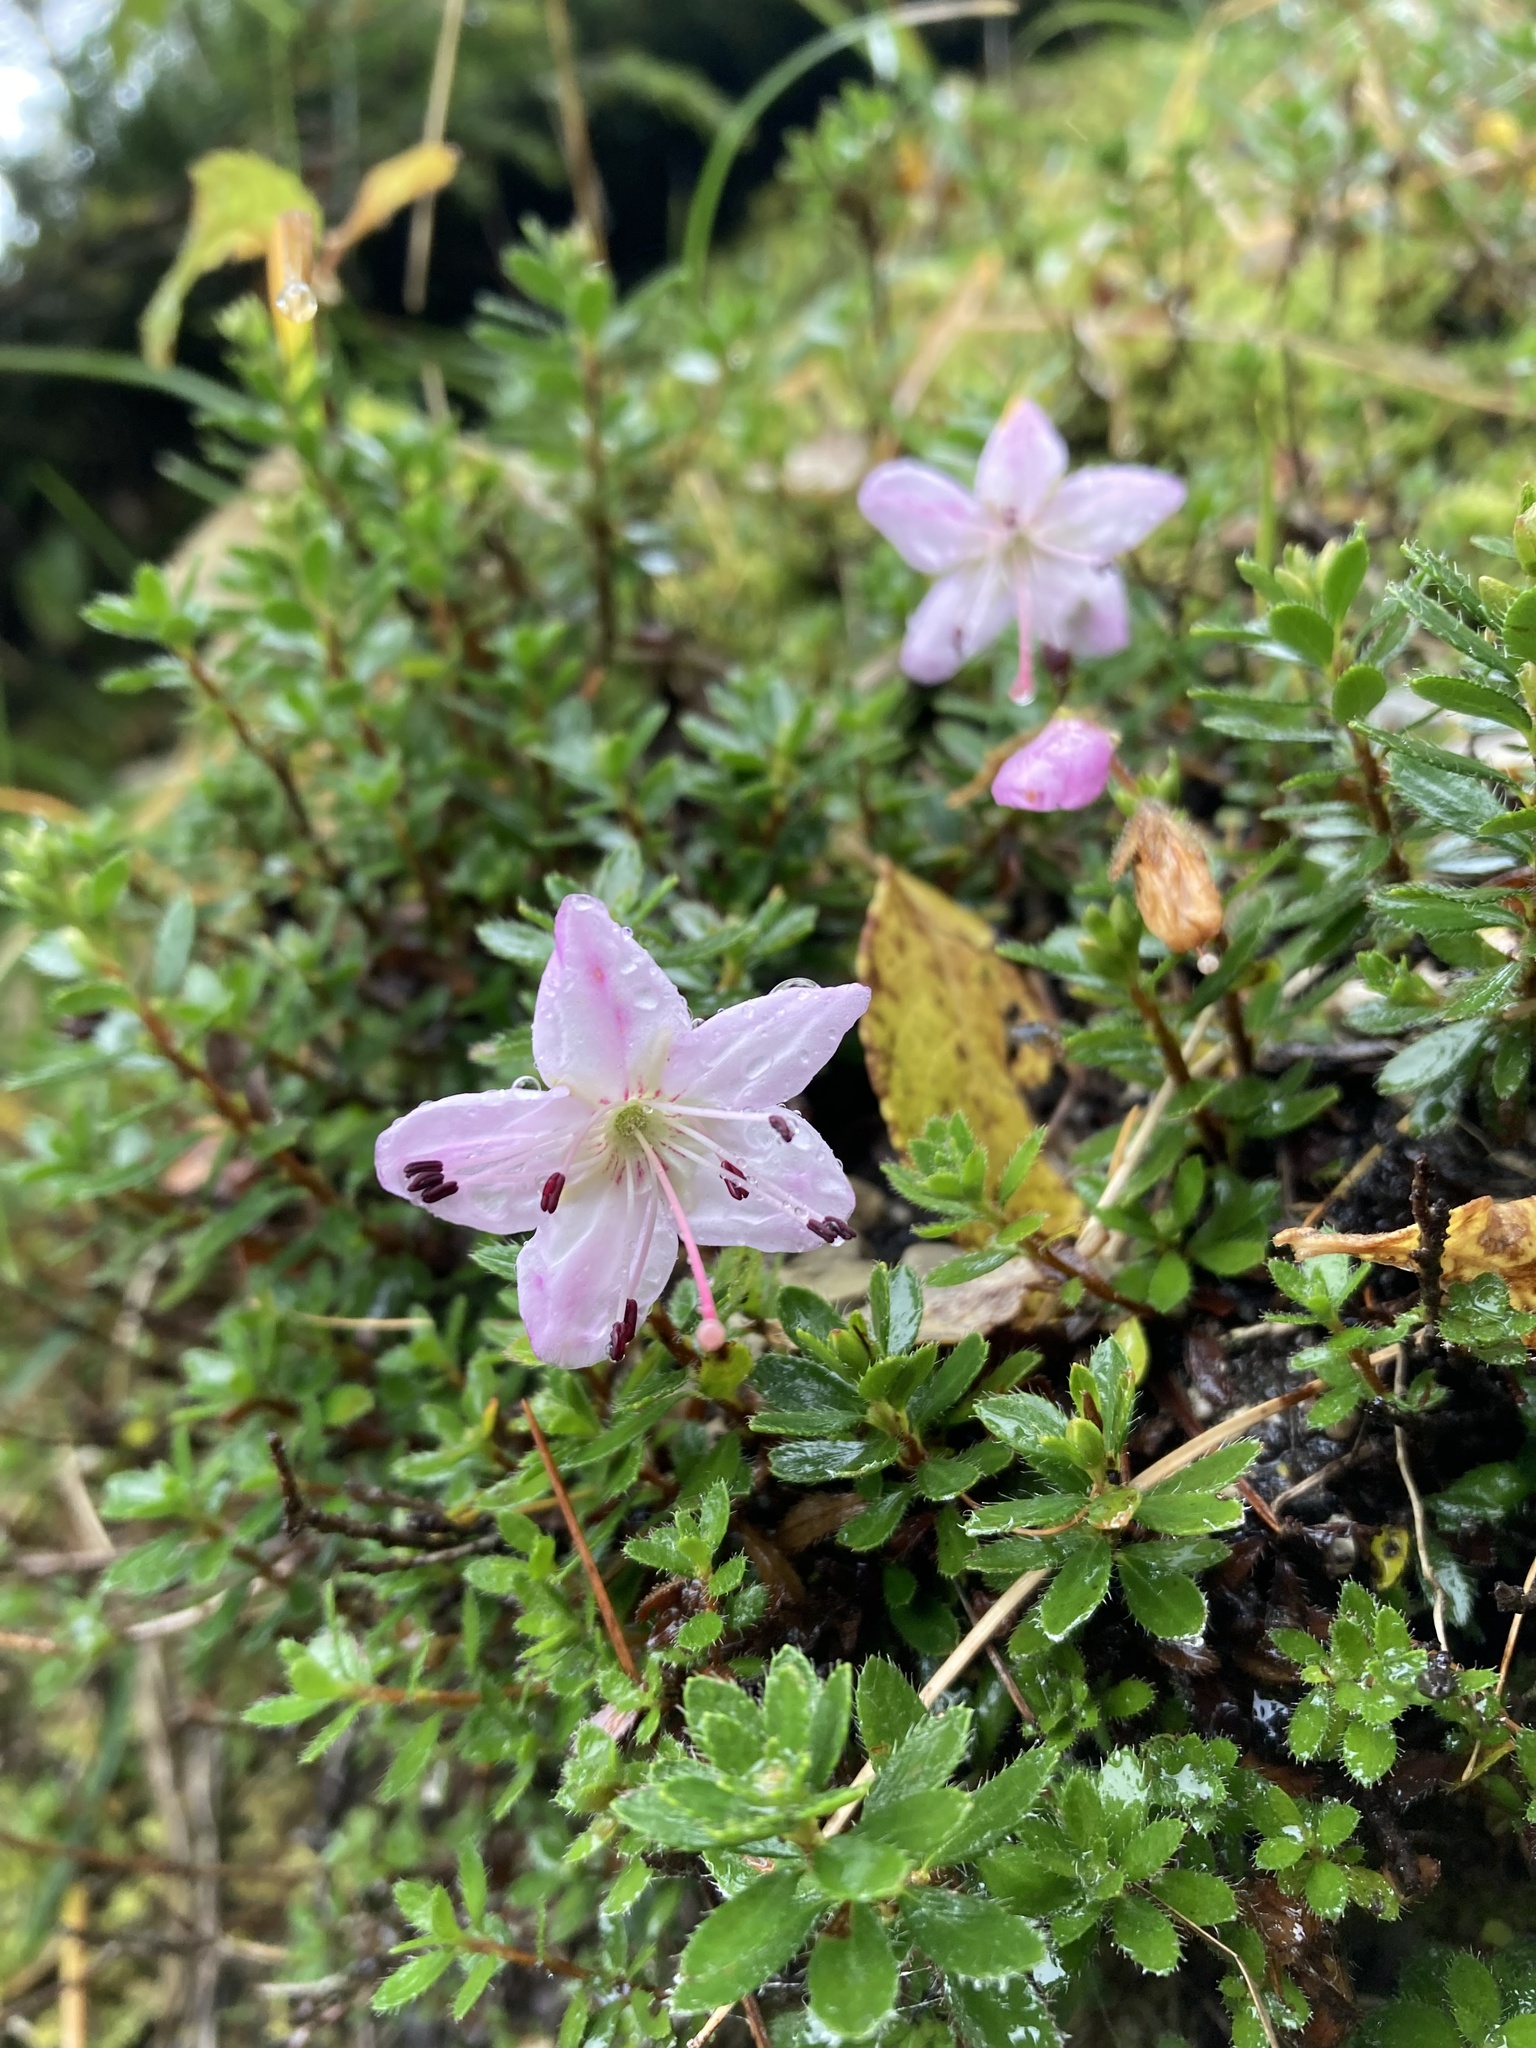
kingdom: Plantae
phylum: Tracheophyta
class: Magnoliopsida
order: Ericales
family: Ericaceae
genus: Rhodothamnus
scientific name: Rhodothamnus chamaecistus
